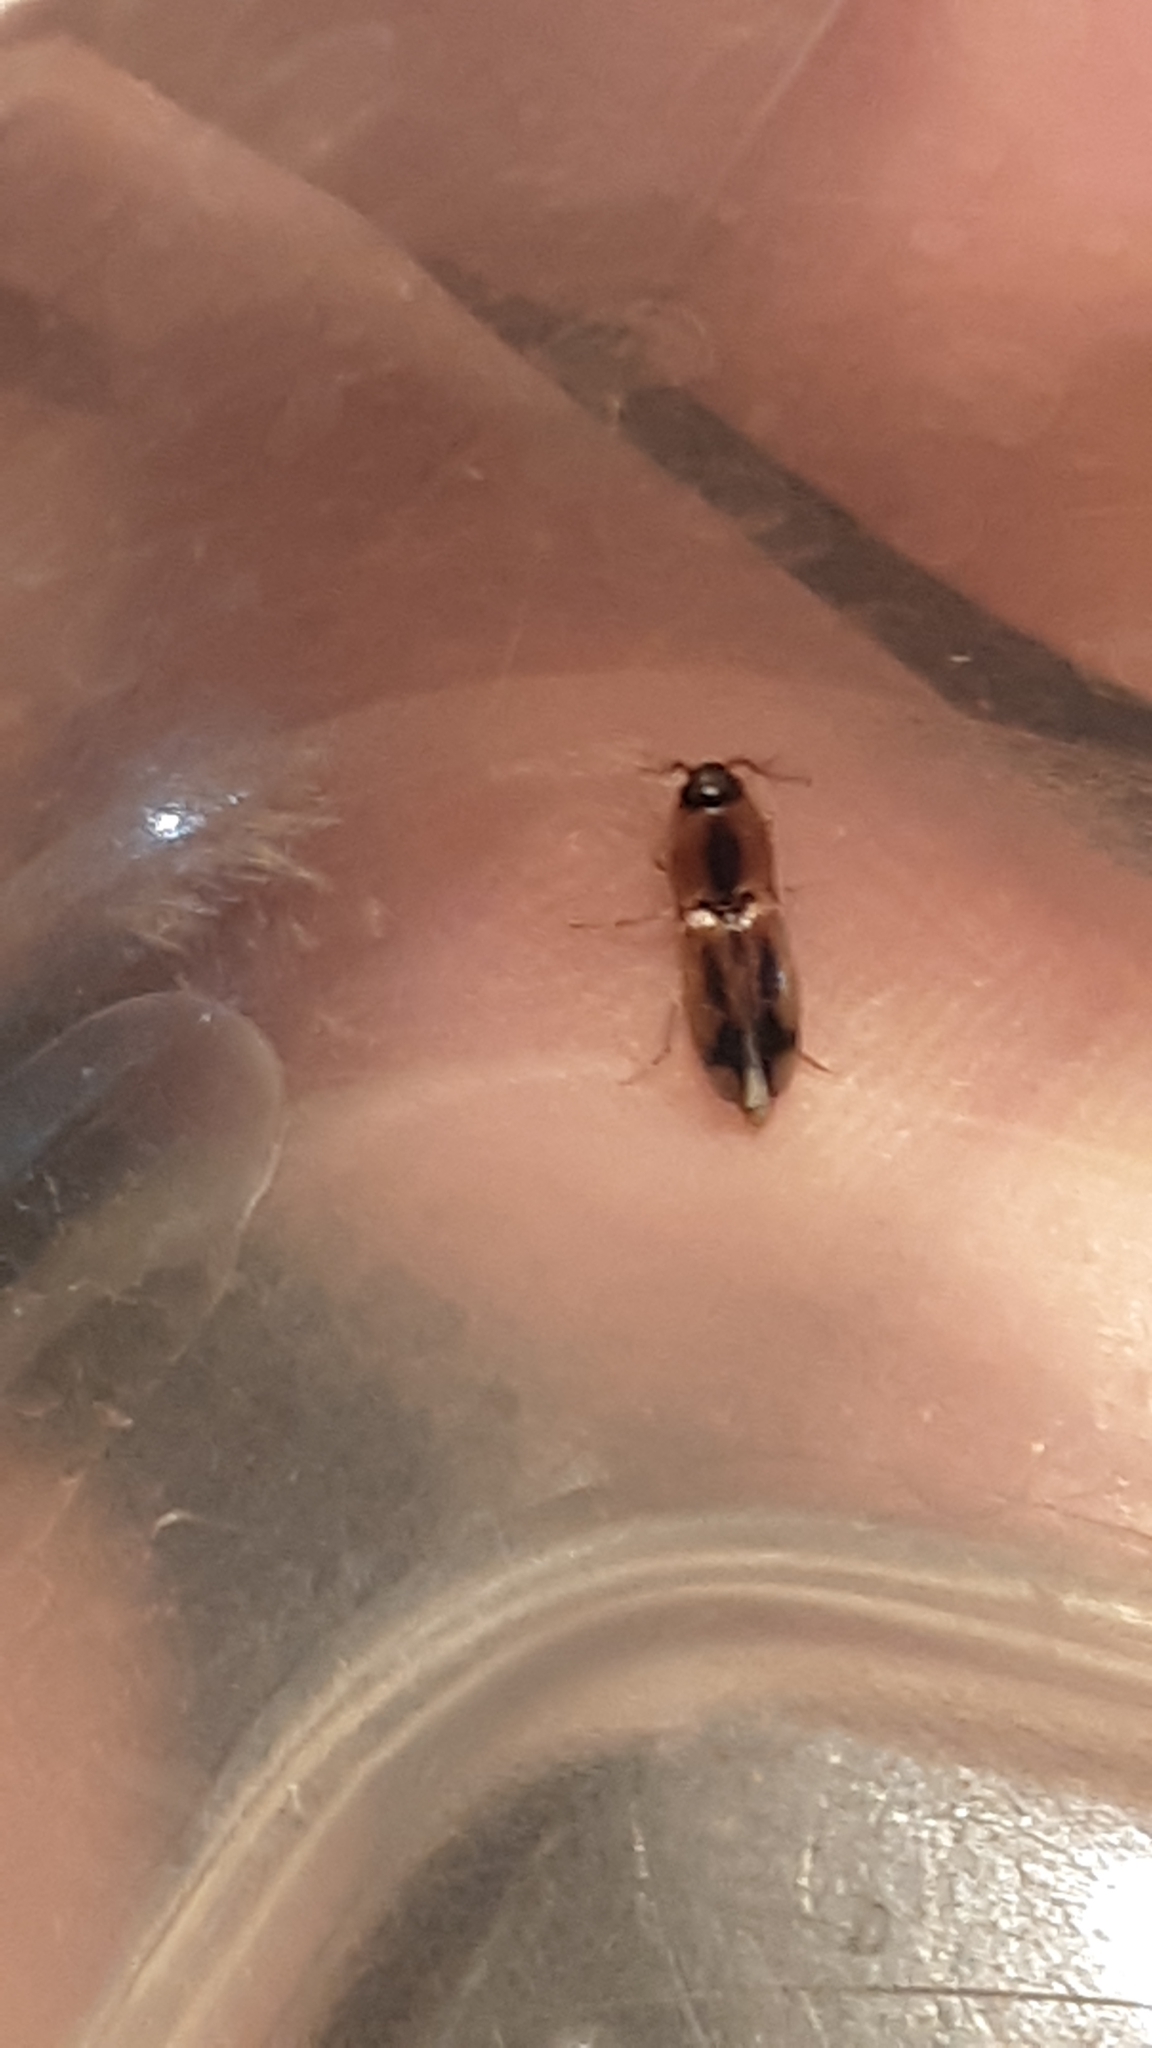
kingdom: Animalia
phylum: Arthropoda
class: Insecta
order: Coleoptera
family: Elateridae
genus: Aeolus
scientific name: Aeolus mellillus
